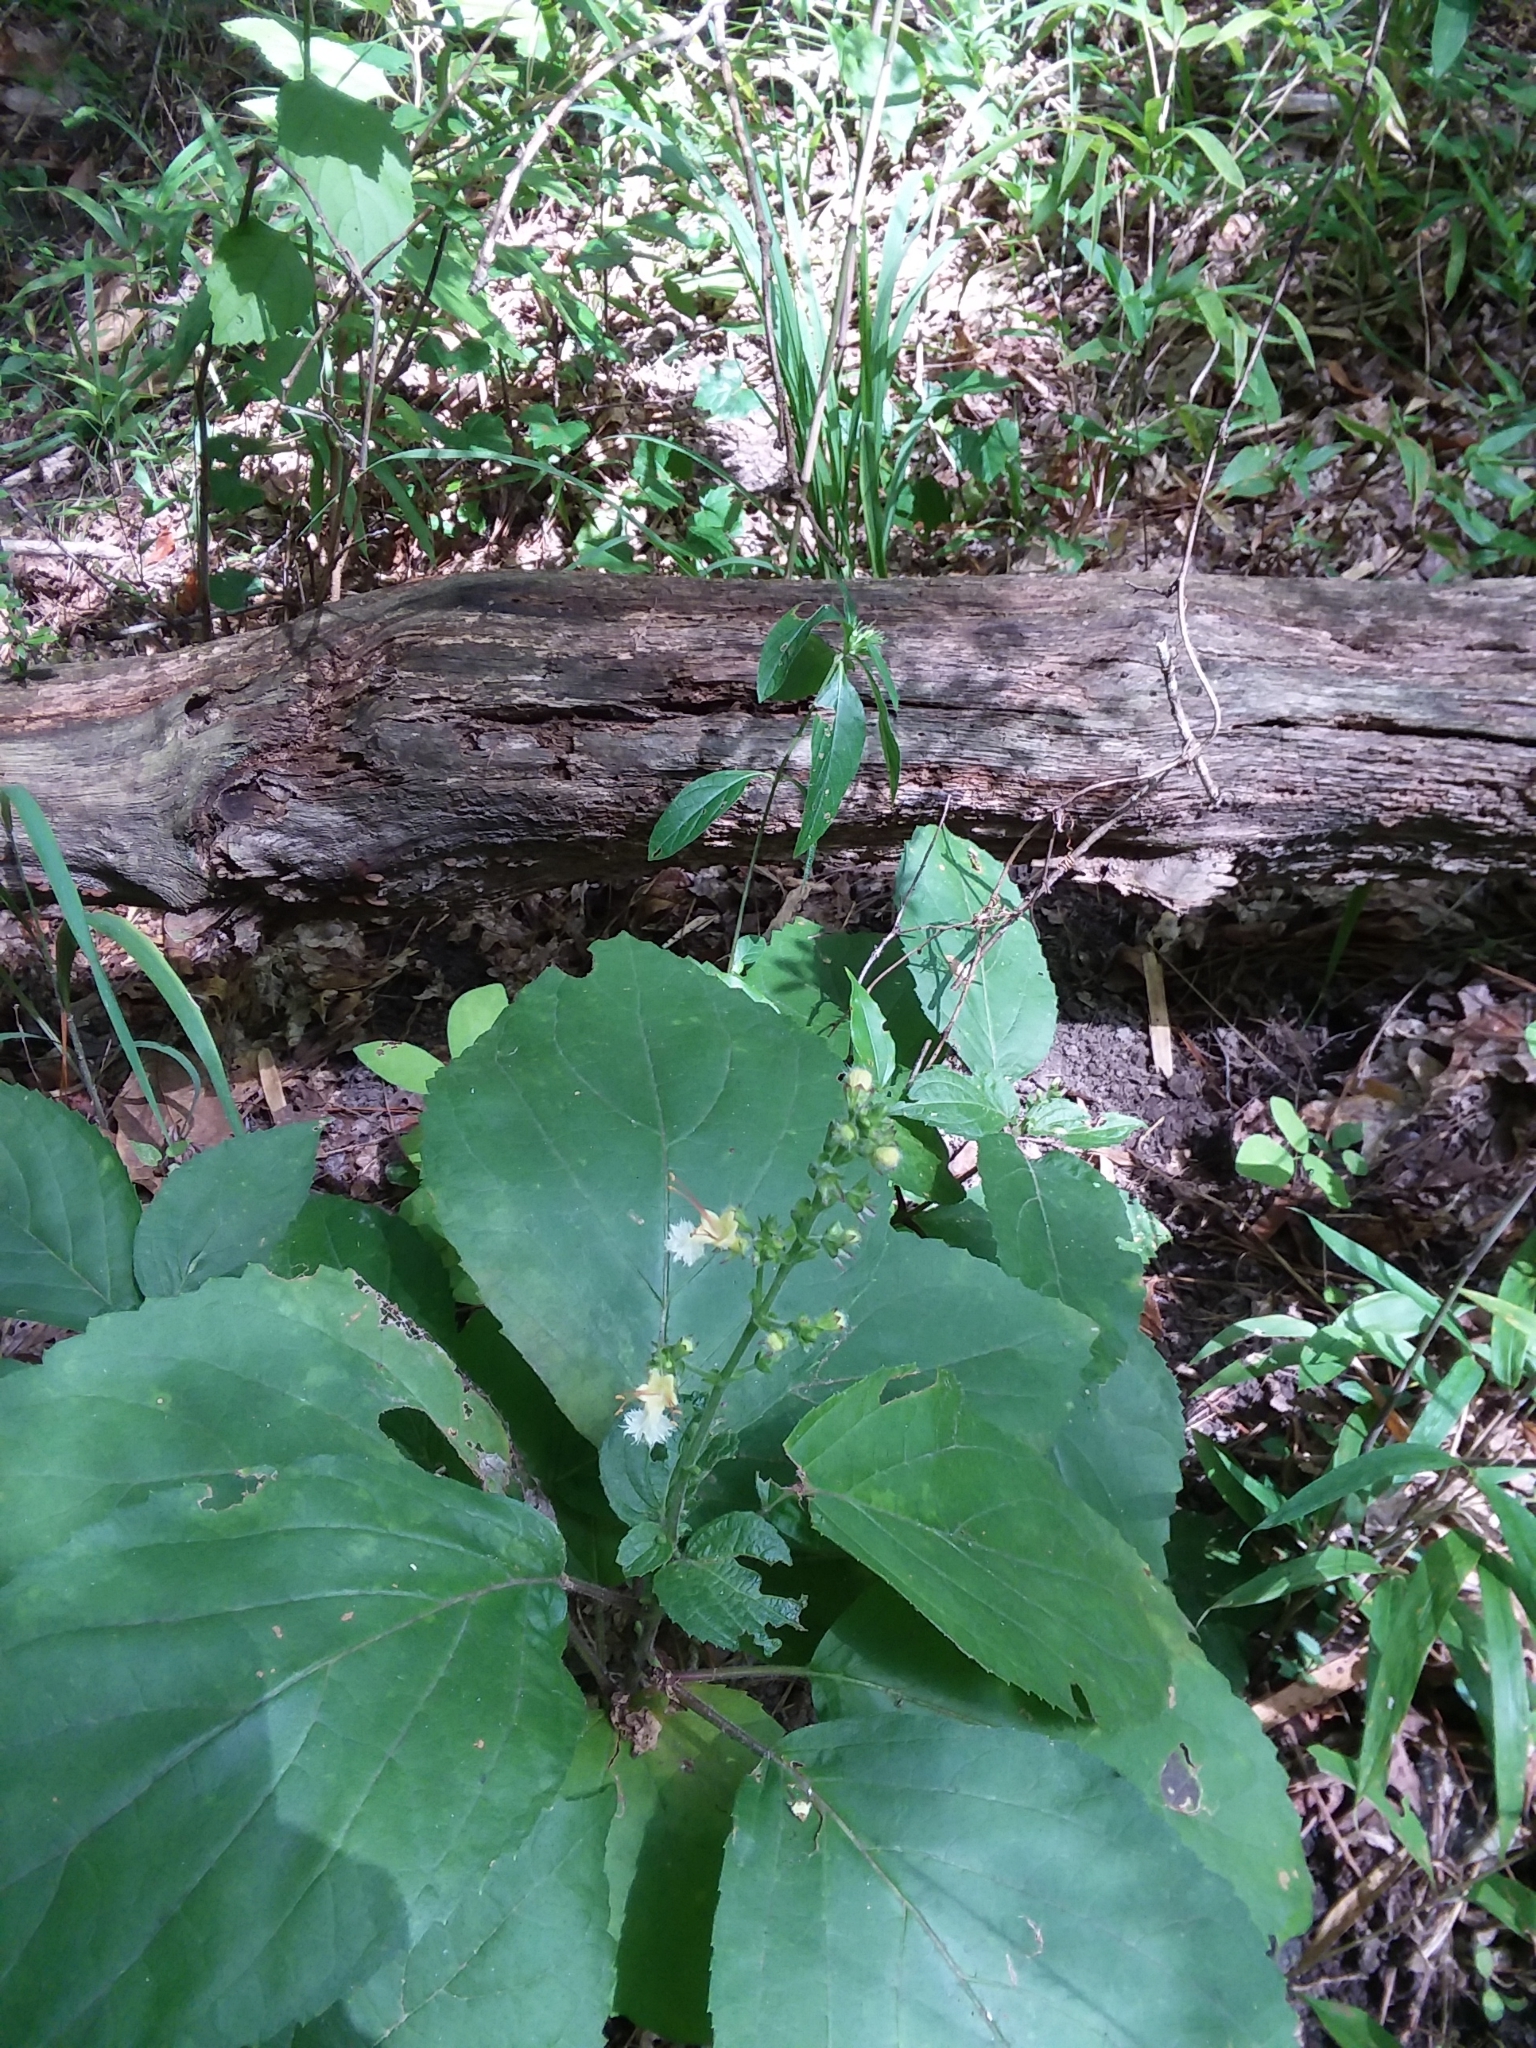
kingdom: Plantae
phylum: Tracheophyta
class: Magnoliopsida
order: Lamiales
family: Lamiaceae
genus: Collinsonia
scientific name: Collinsonia anisata
